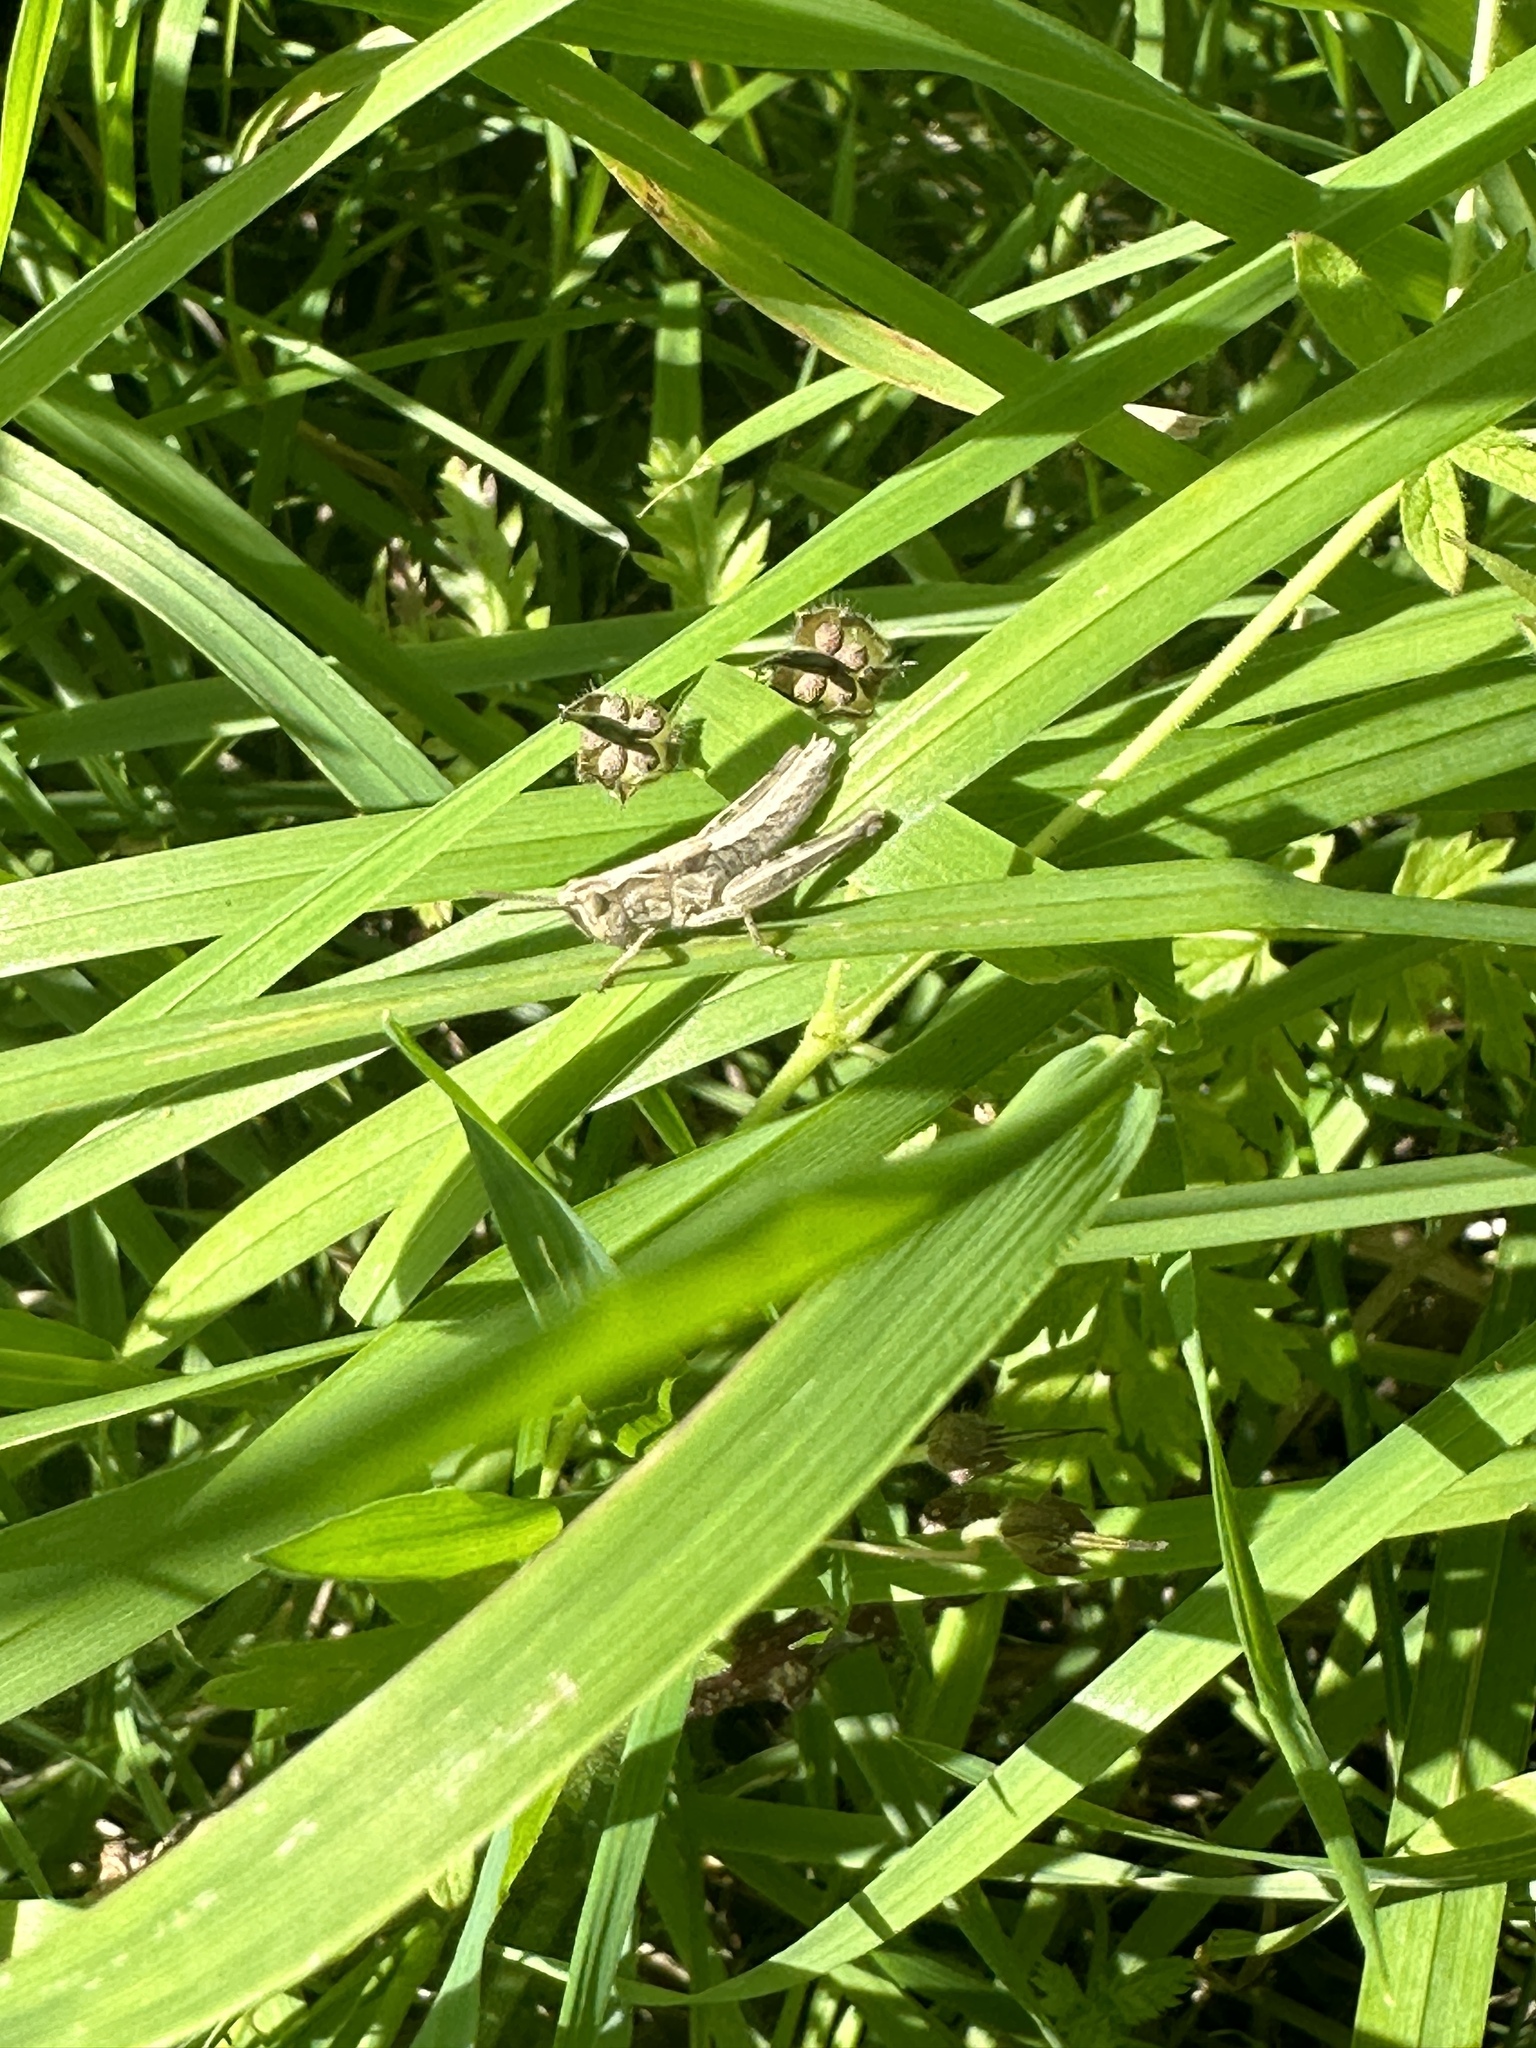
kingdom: Animalia
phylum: Arthropoda
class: Insecta
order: Orthoptera
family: Acrididae
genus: Chorthippus
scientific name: Chorthippus brunneus
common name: Field grasshopper
